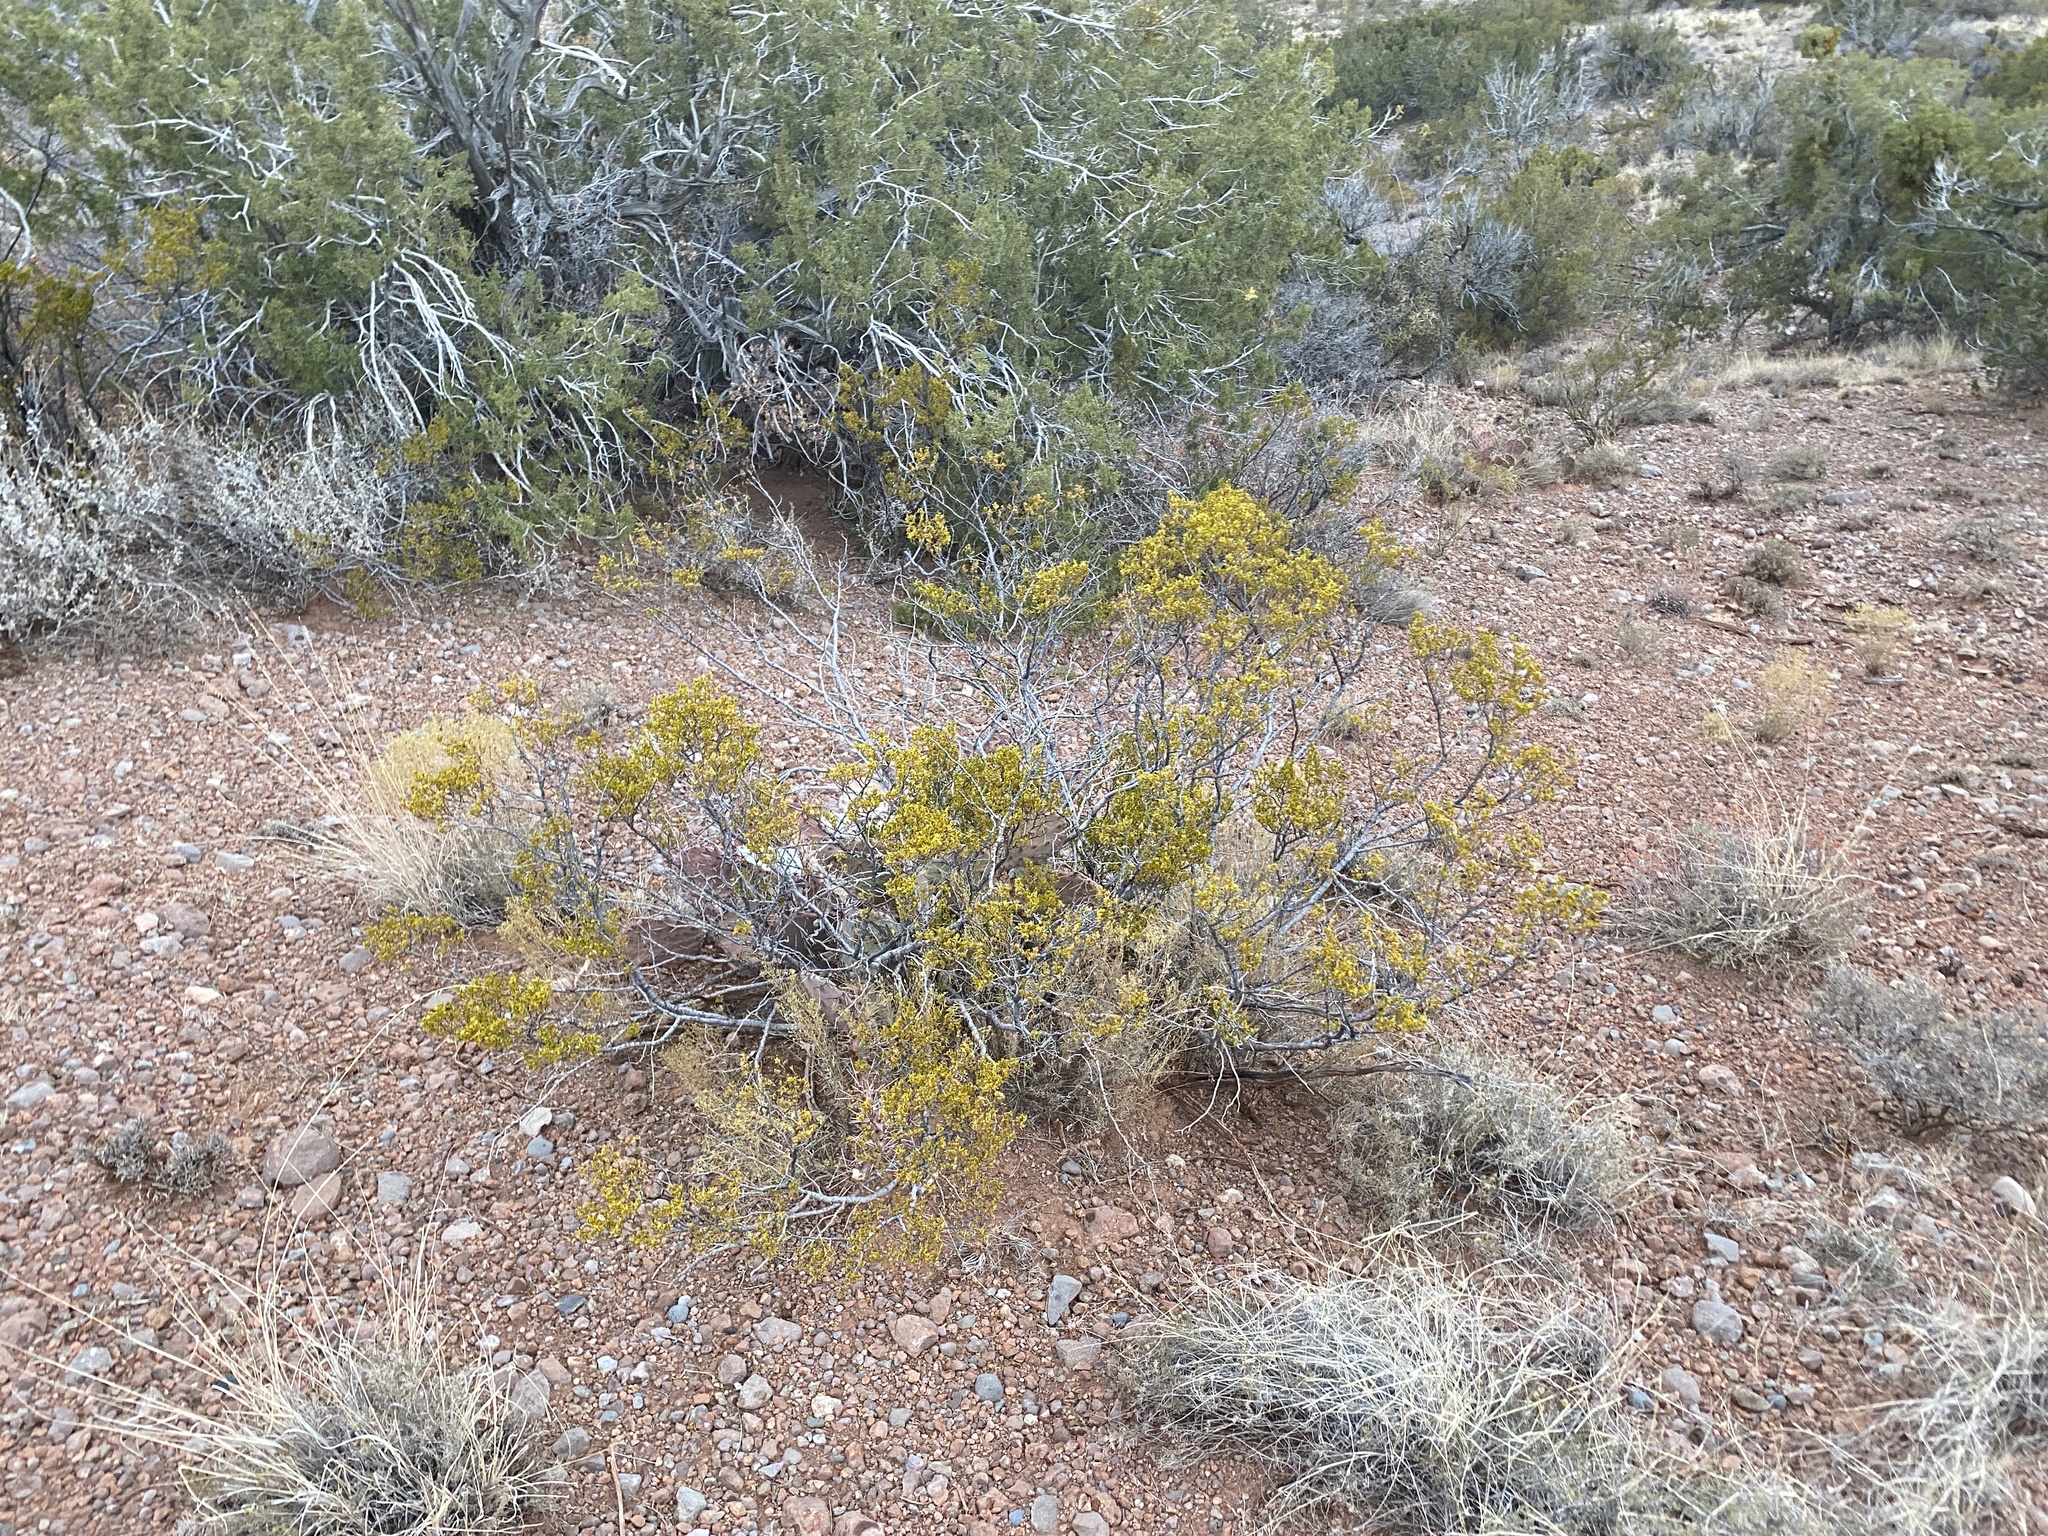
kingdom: Plantae
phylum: Tracheophyta
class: Magnoliopsida
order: Zygophyllales
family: Zygophyllaceae
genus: Larrea
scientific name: Larrea tridentata
